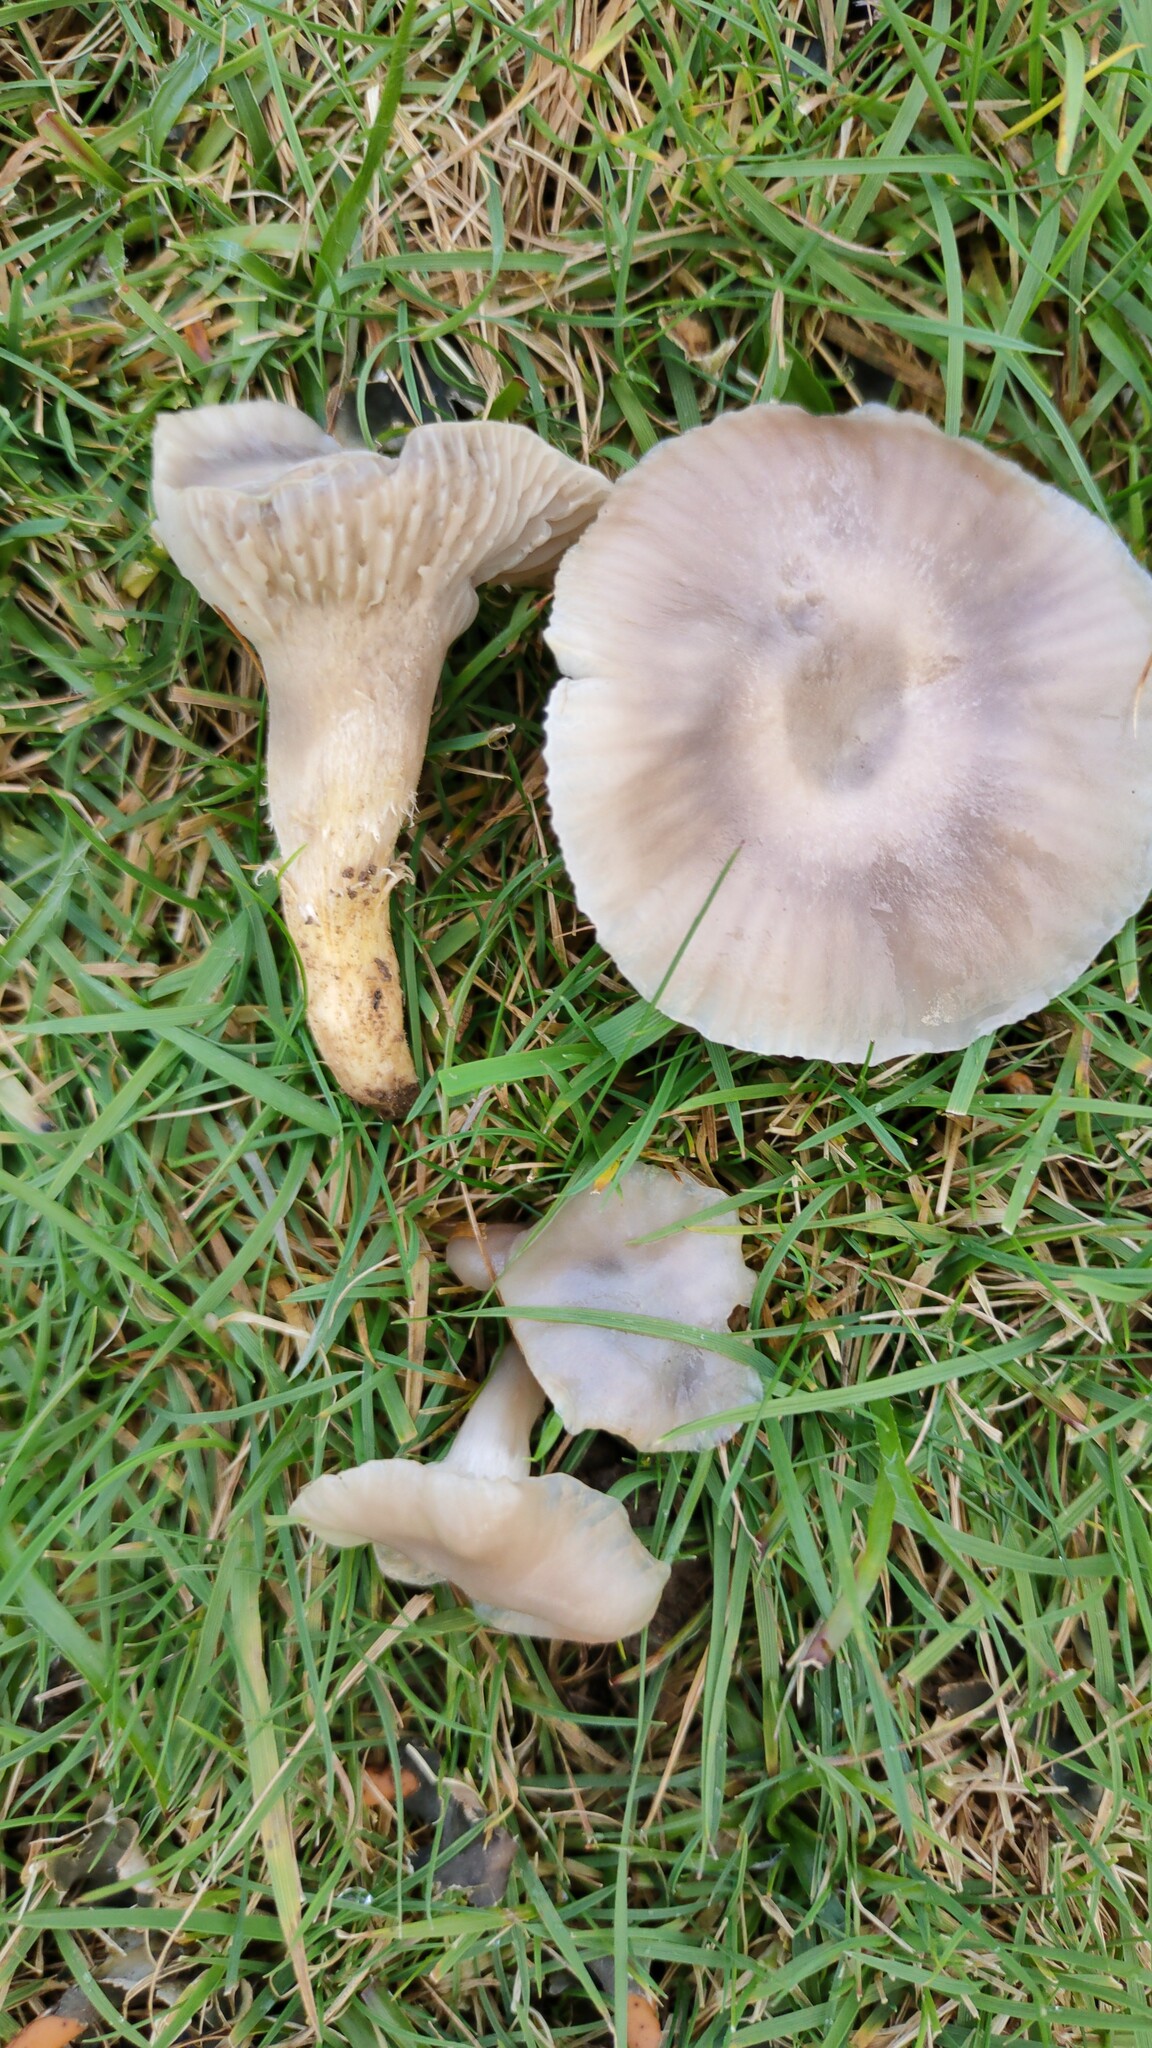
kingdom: Fungi
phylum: Basidiomycota
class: Agaricomycetes
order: Agaricales
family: Hygrophoraceae
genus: Cuphophyllus
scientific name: Cuphophyllus flavipes
